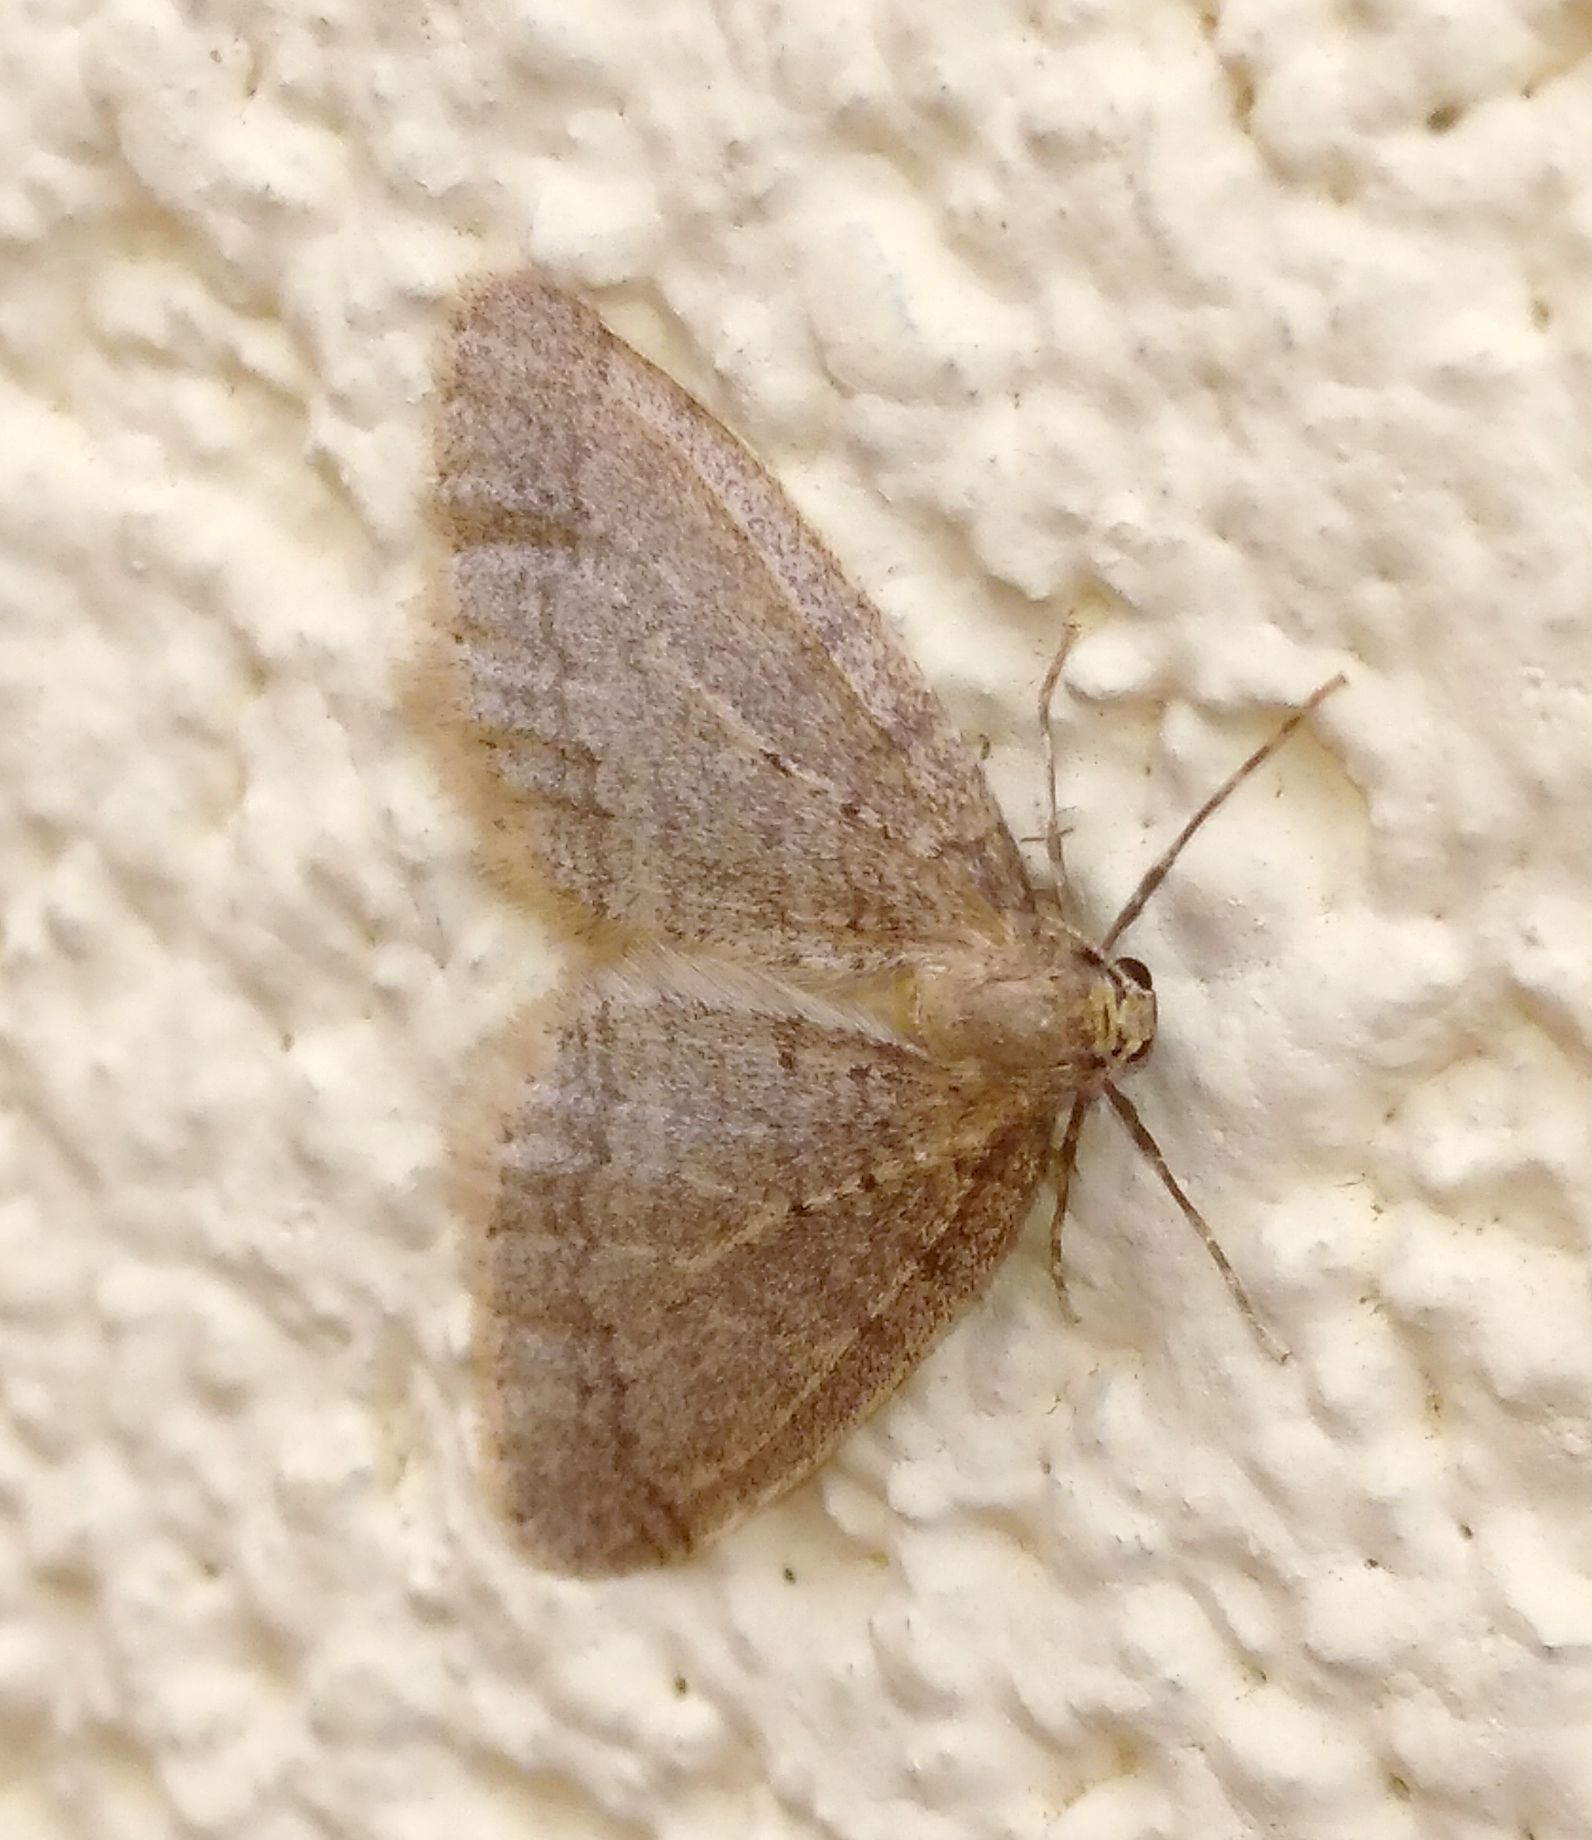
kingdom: Animalia
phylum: Arthropoda
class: Insecta
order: Lepidoptera
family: Geometridae
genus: Operophtera
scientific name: Operophtera brumata
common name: Winter moth
